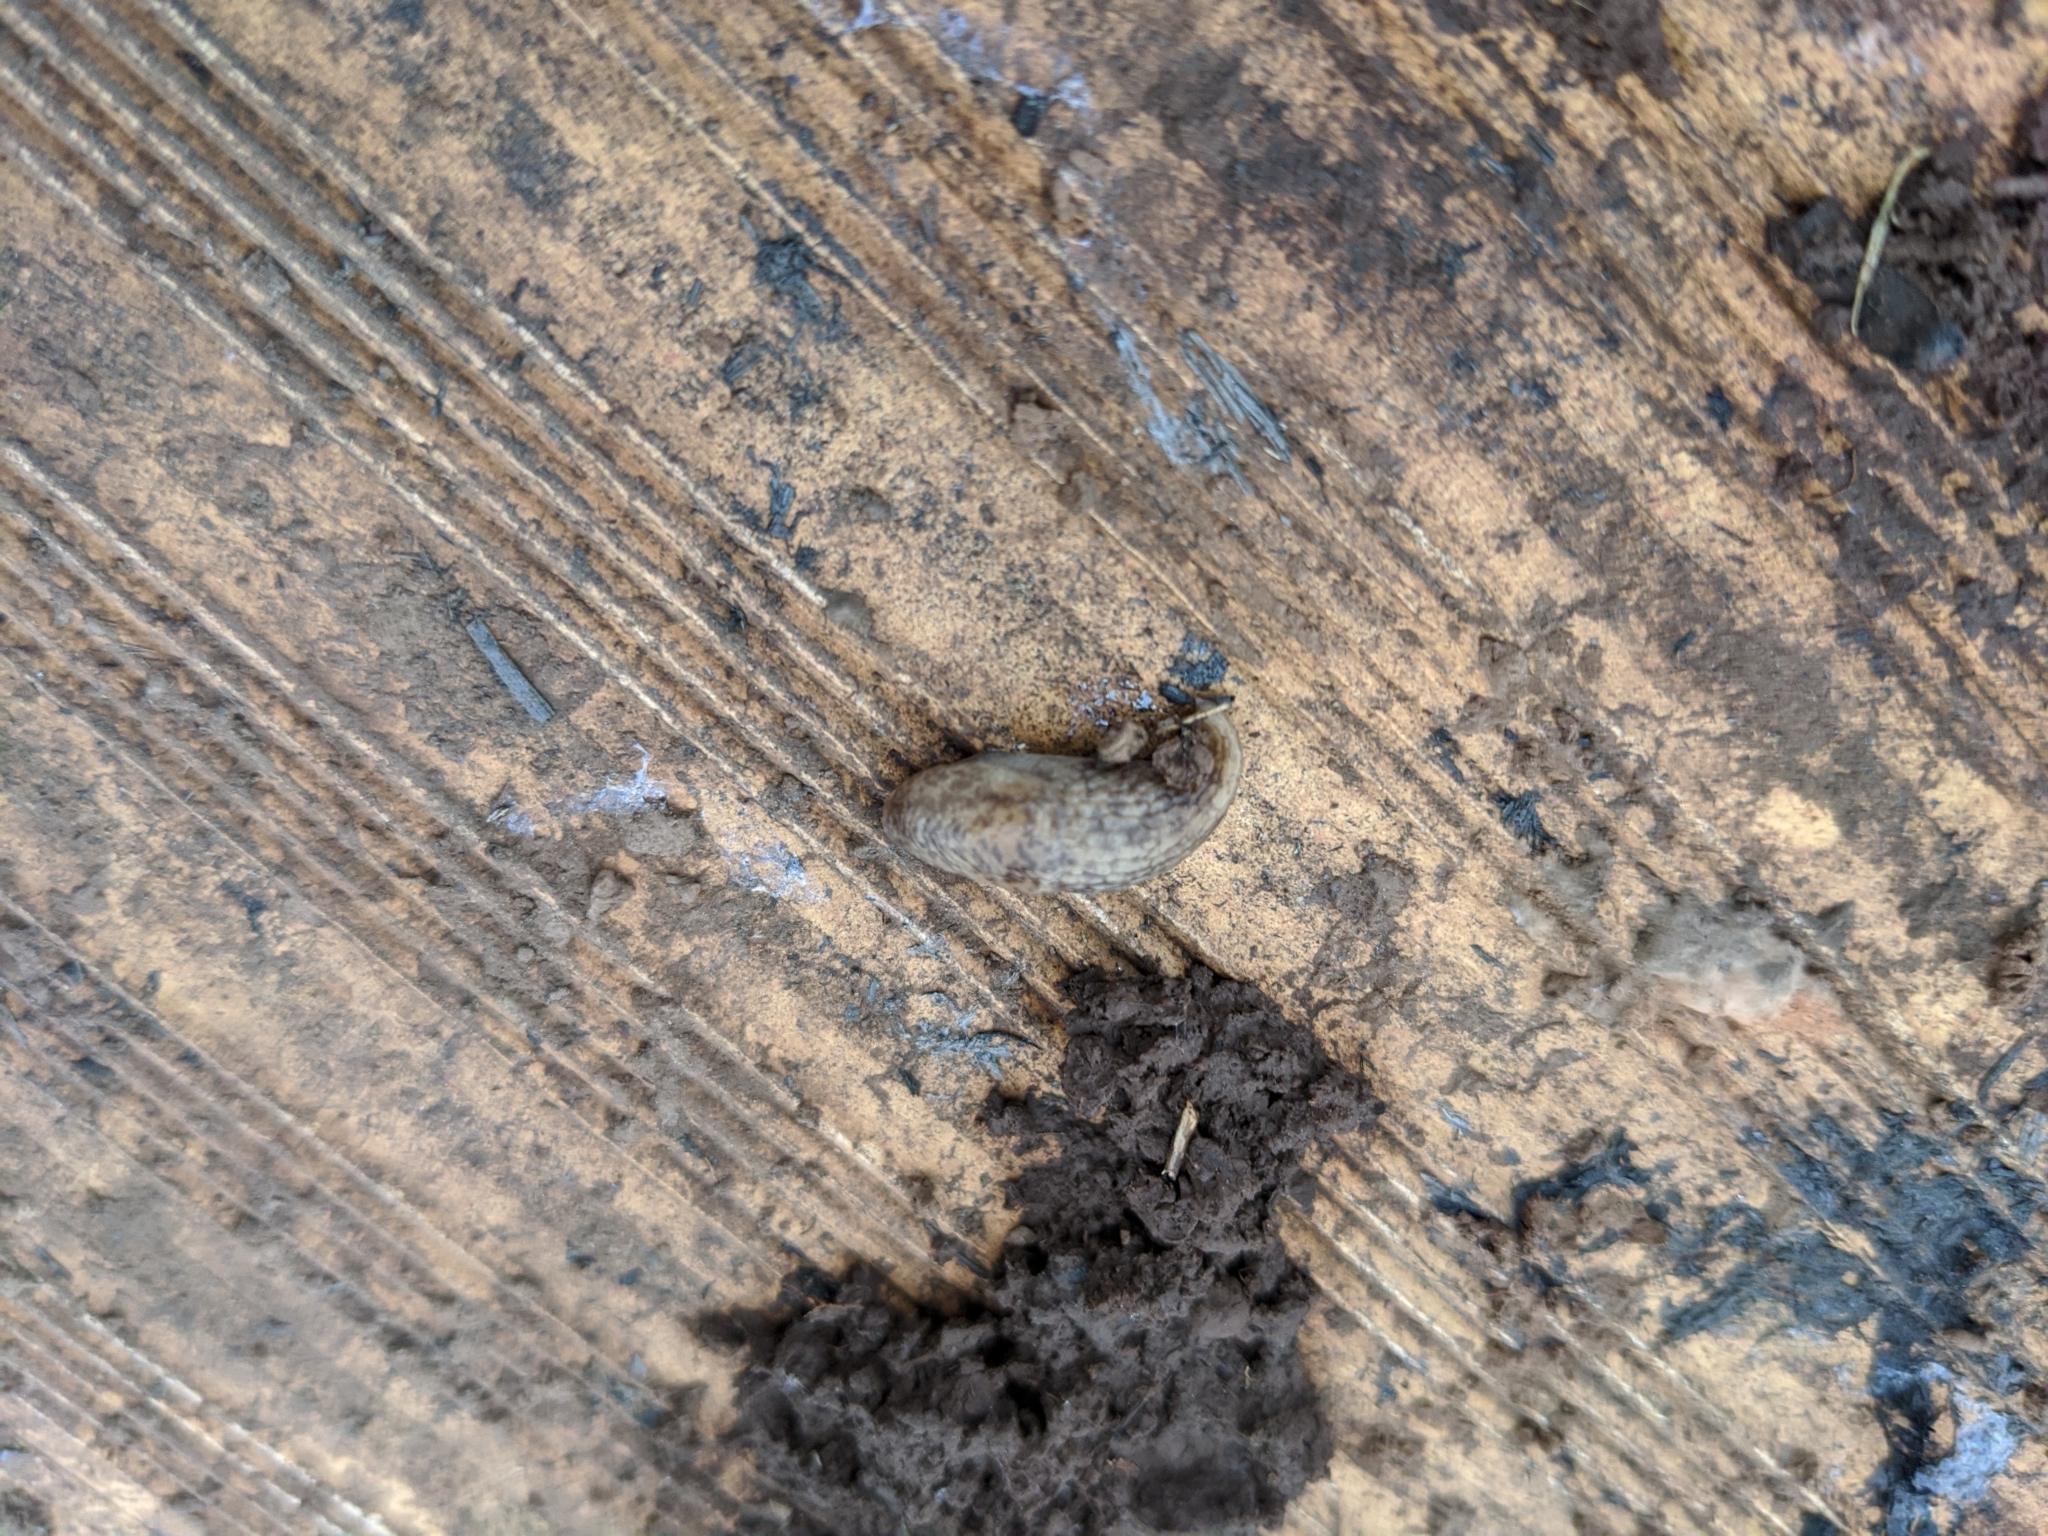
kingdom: Animalia
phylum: Mollusca
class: Gastropoda
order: Stylommatophora
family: Agriolimacidae
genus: Deroceras
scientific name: Deroceras reticulatum
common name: Gray field slug
